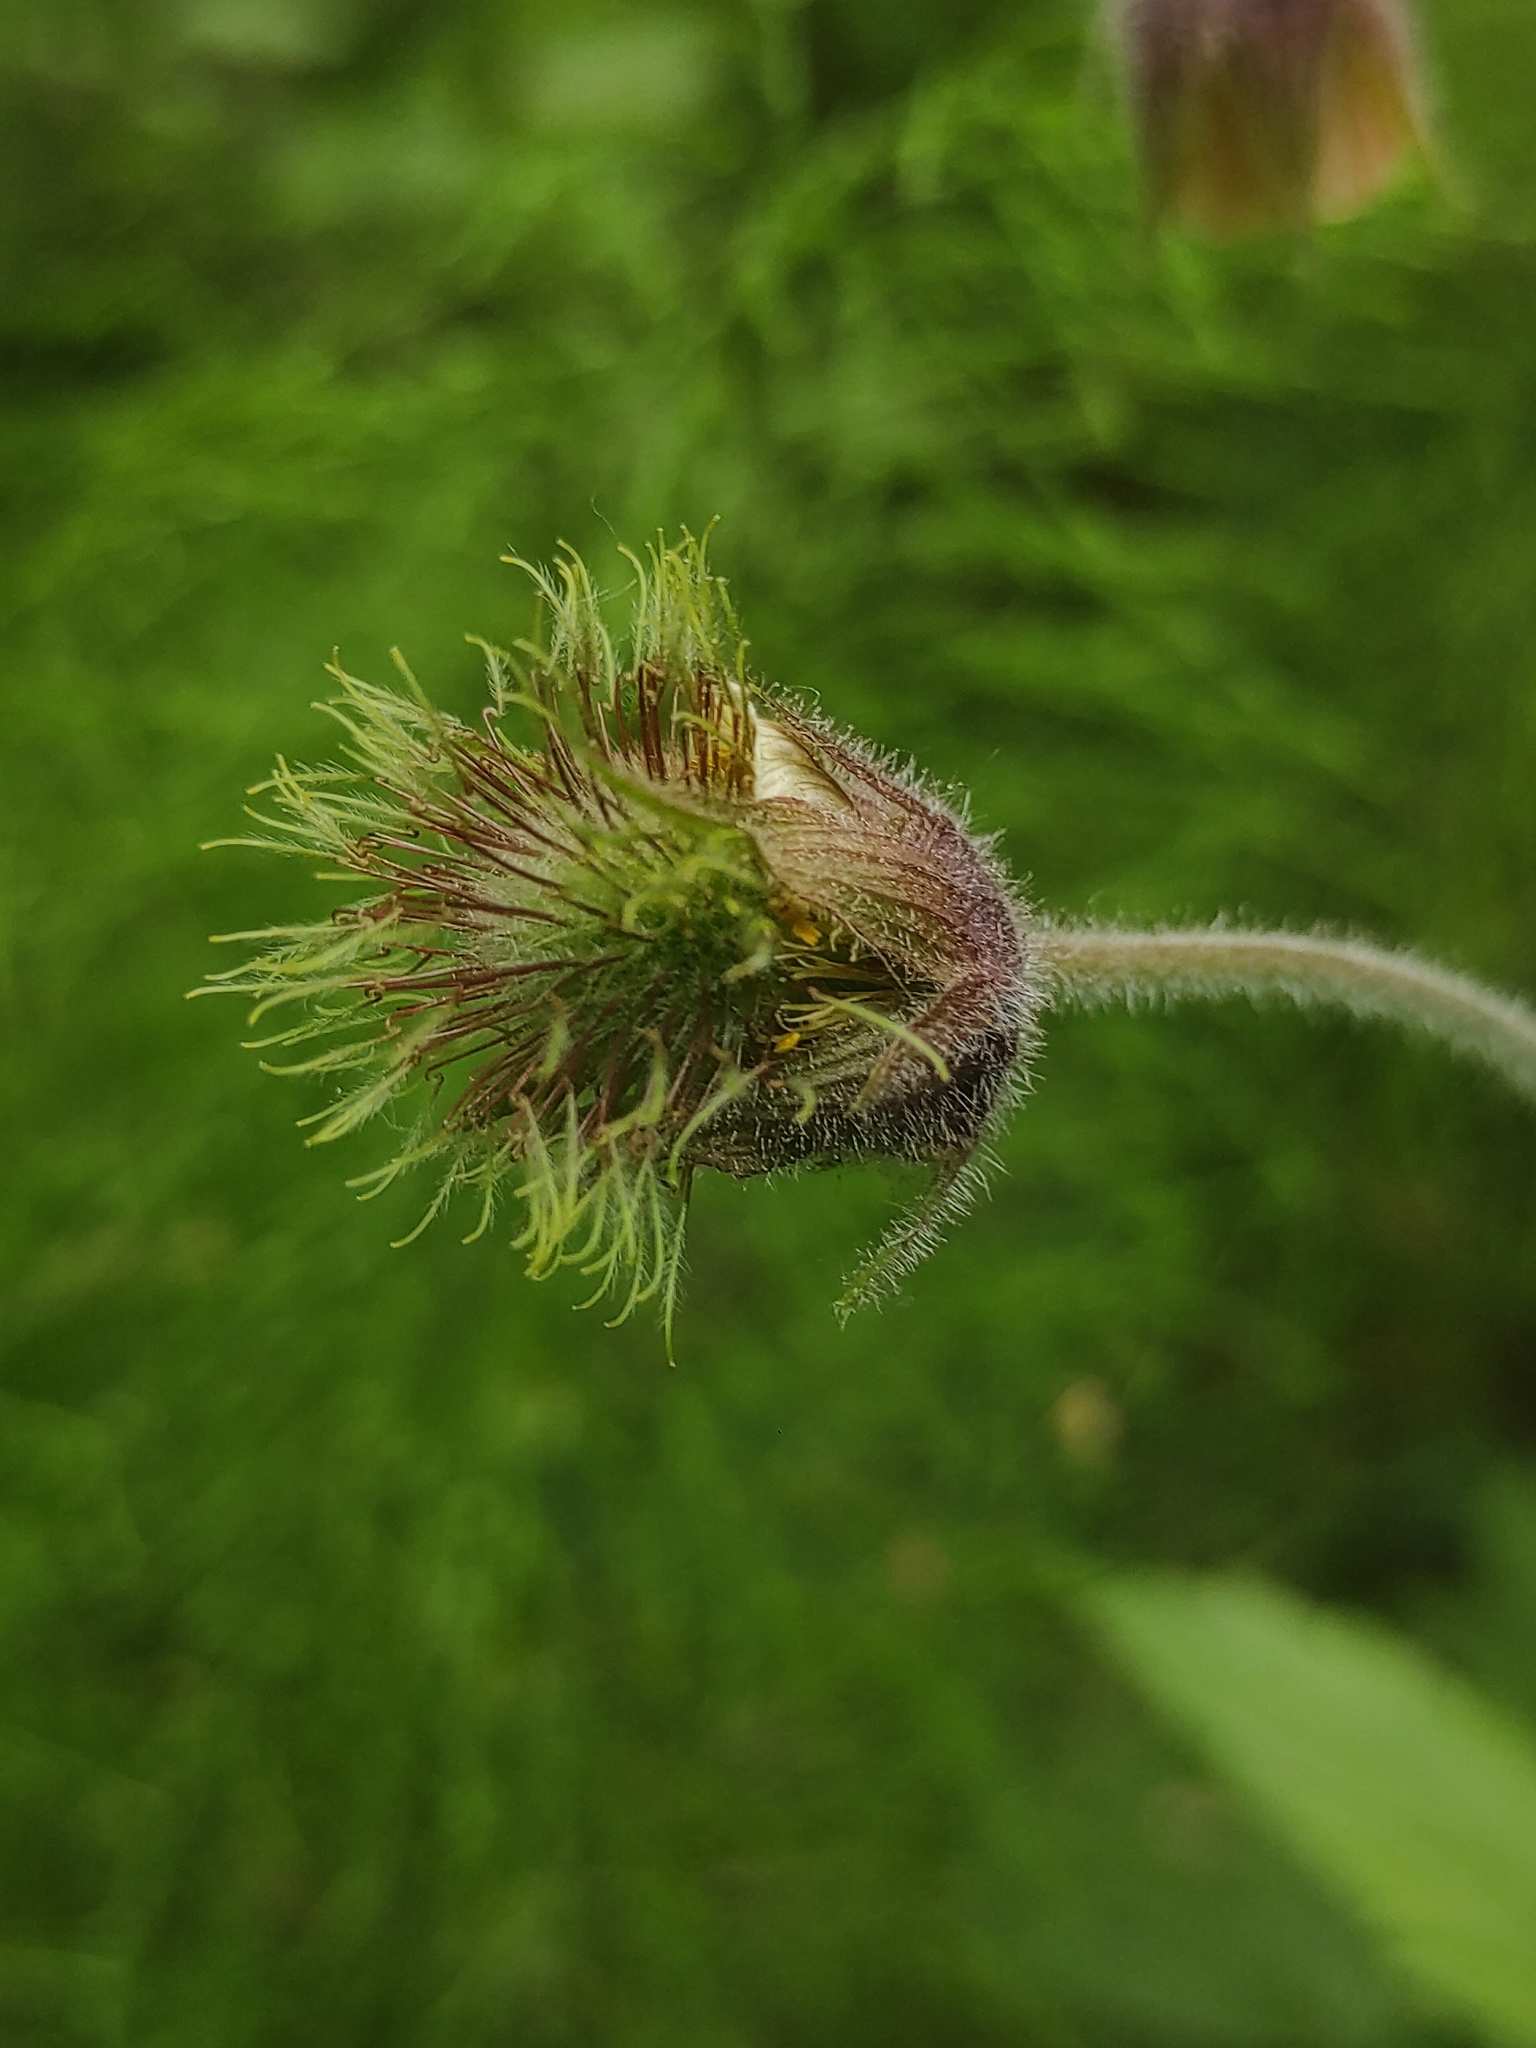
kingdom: Plantae
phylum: Tracheophyta
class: Magnoliopsida
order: Rosales
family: Rosaceae
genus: Geum
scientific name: Geum rivale
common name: Water avens
